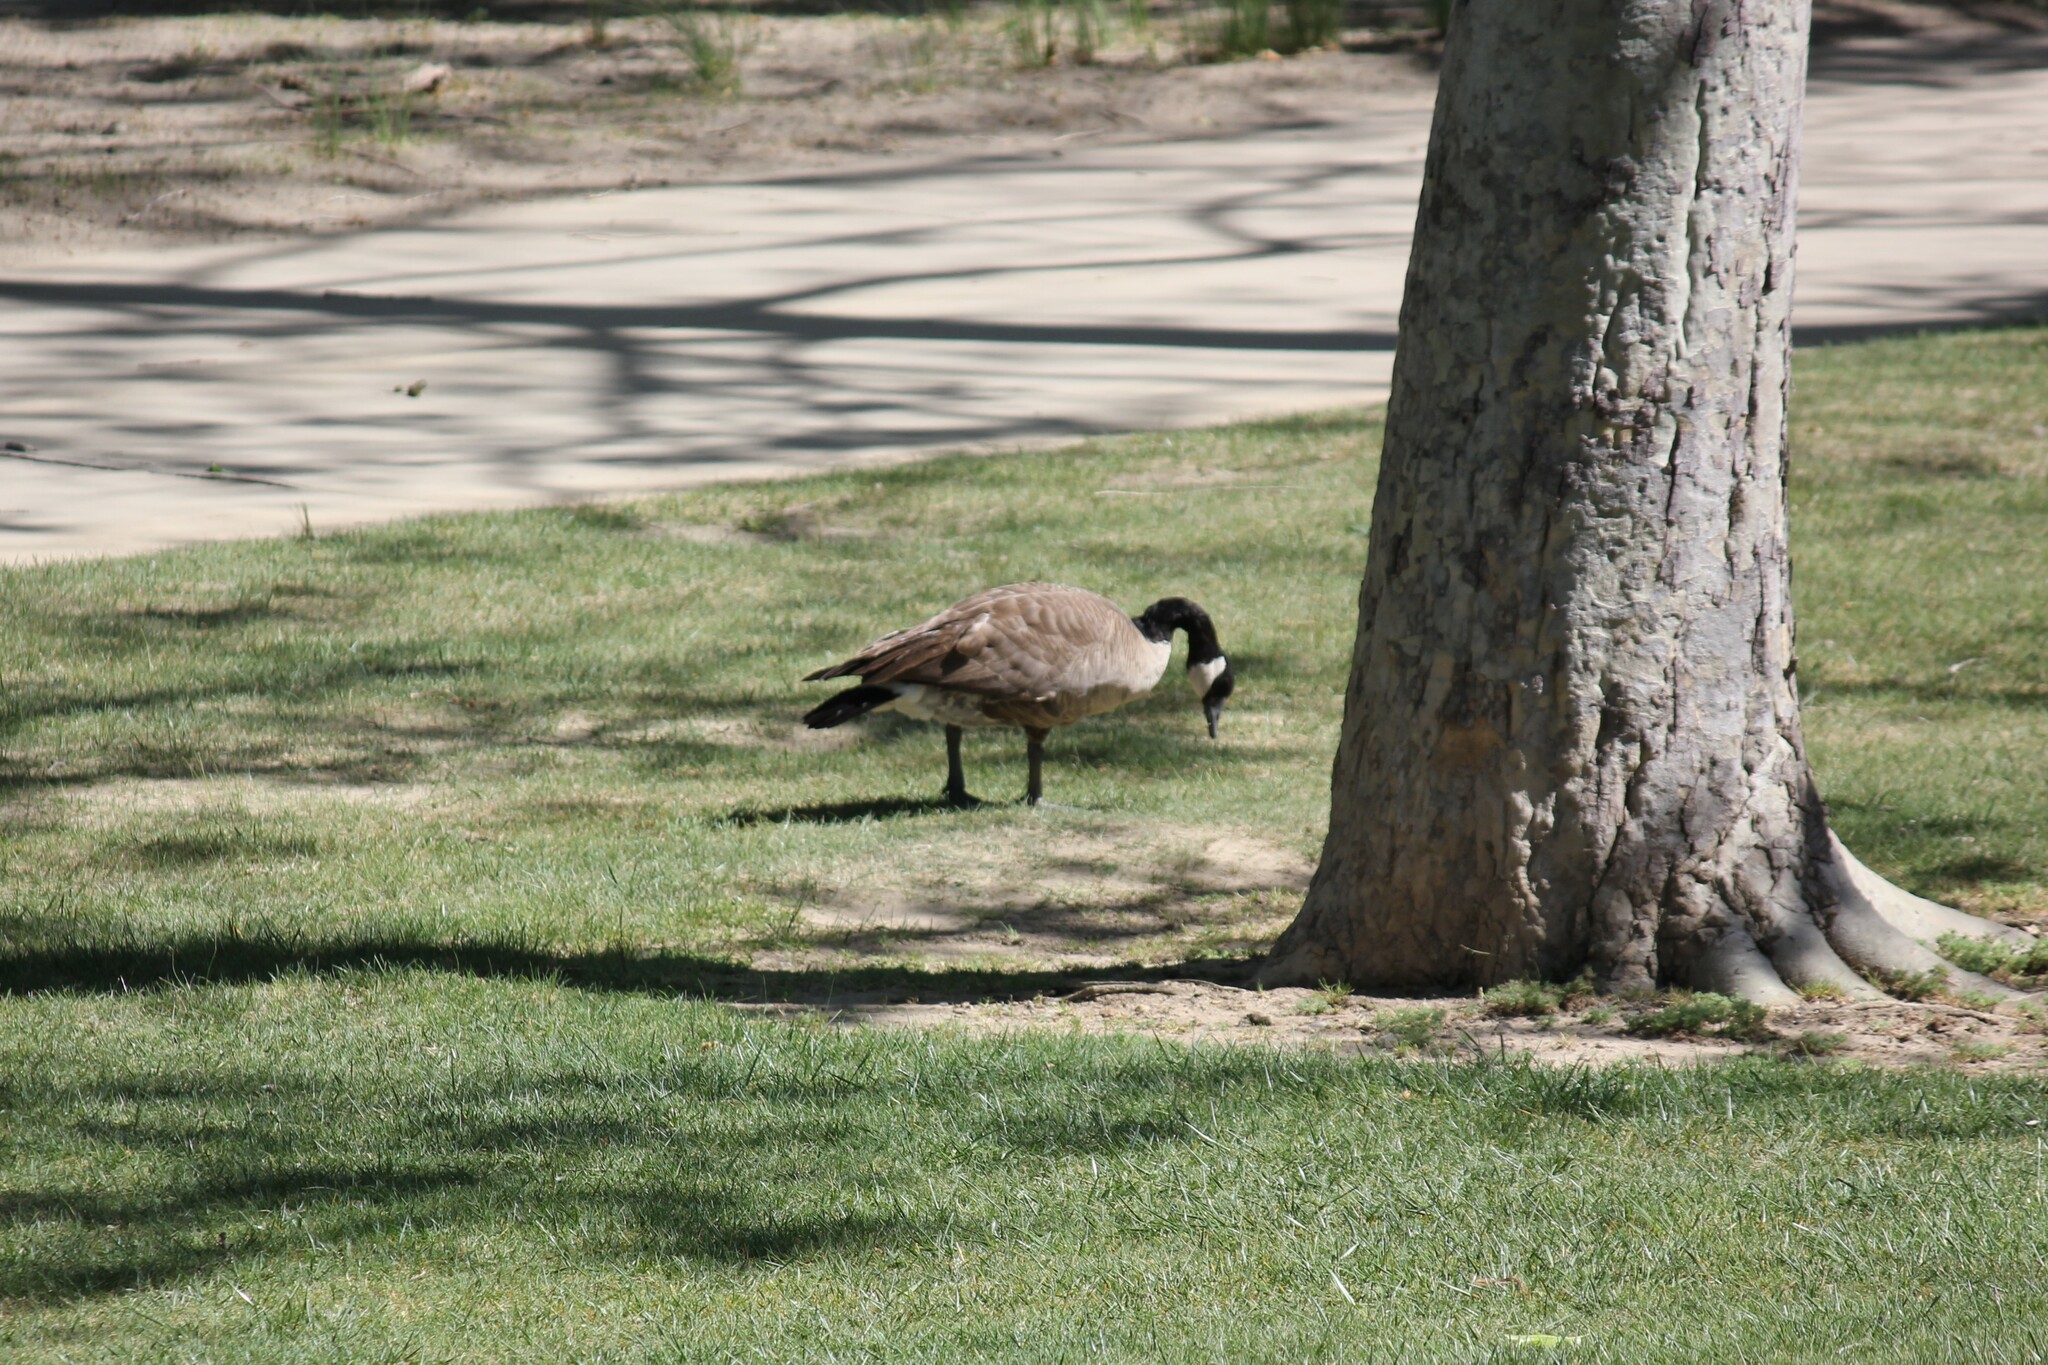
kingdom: Animalia
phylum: Chordata
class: Aves
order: Anseriformes
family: Anatidae
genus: Branta
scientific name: Branta canadensis
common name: Canada goose
